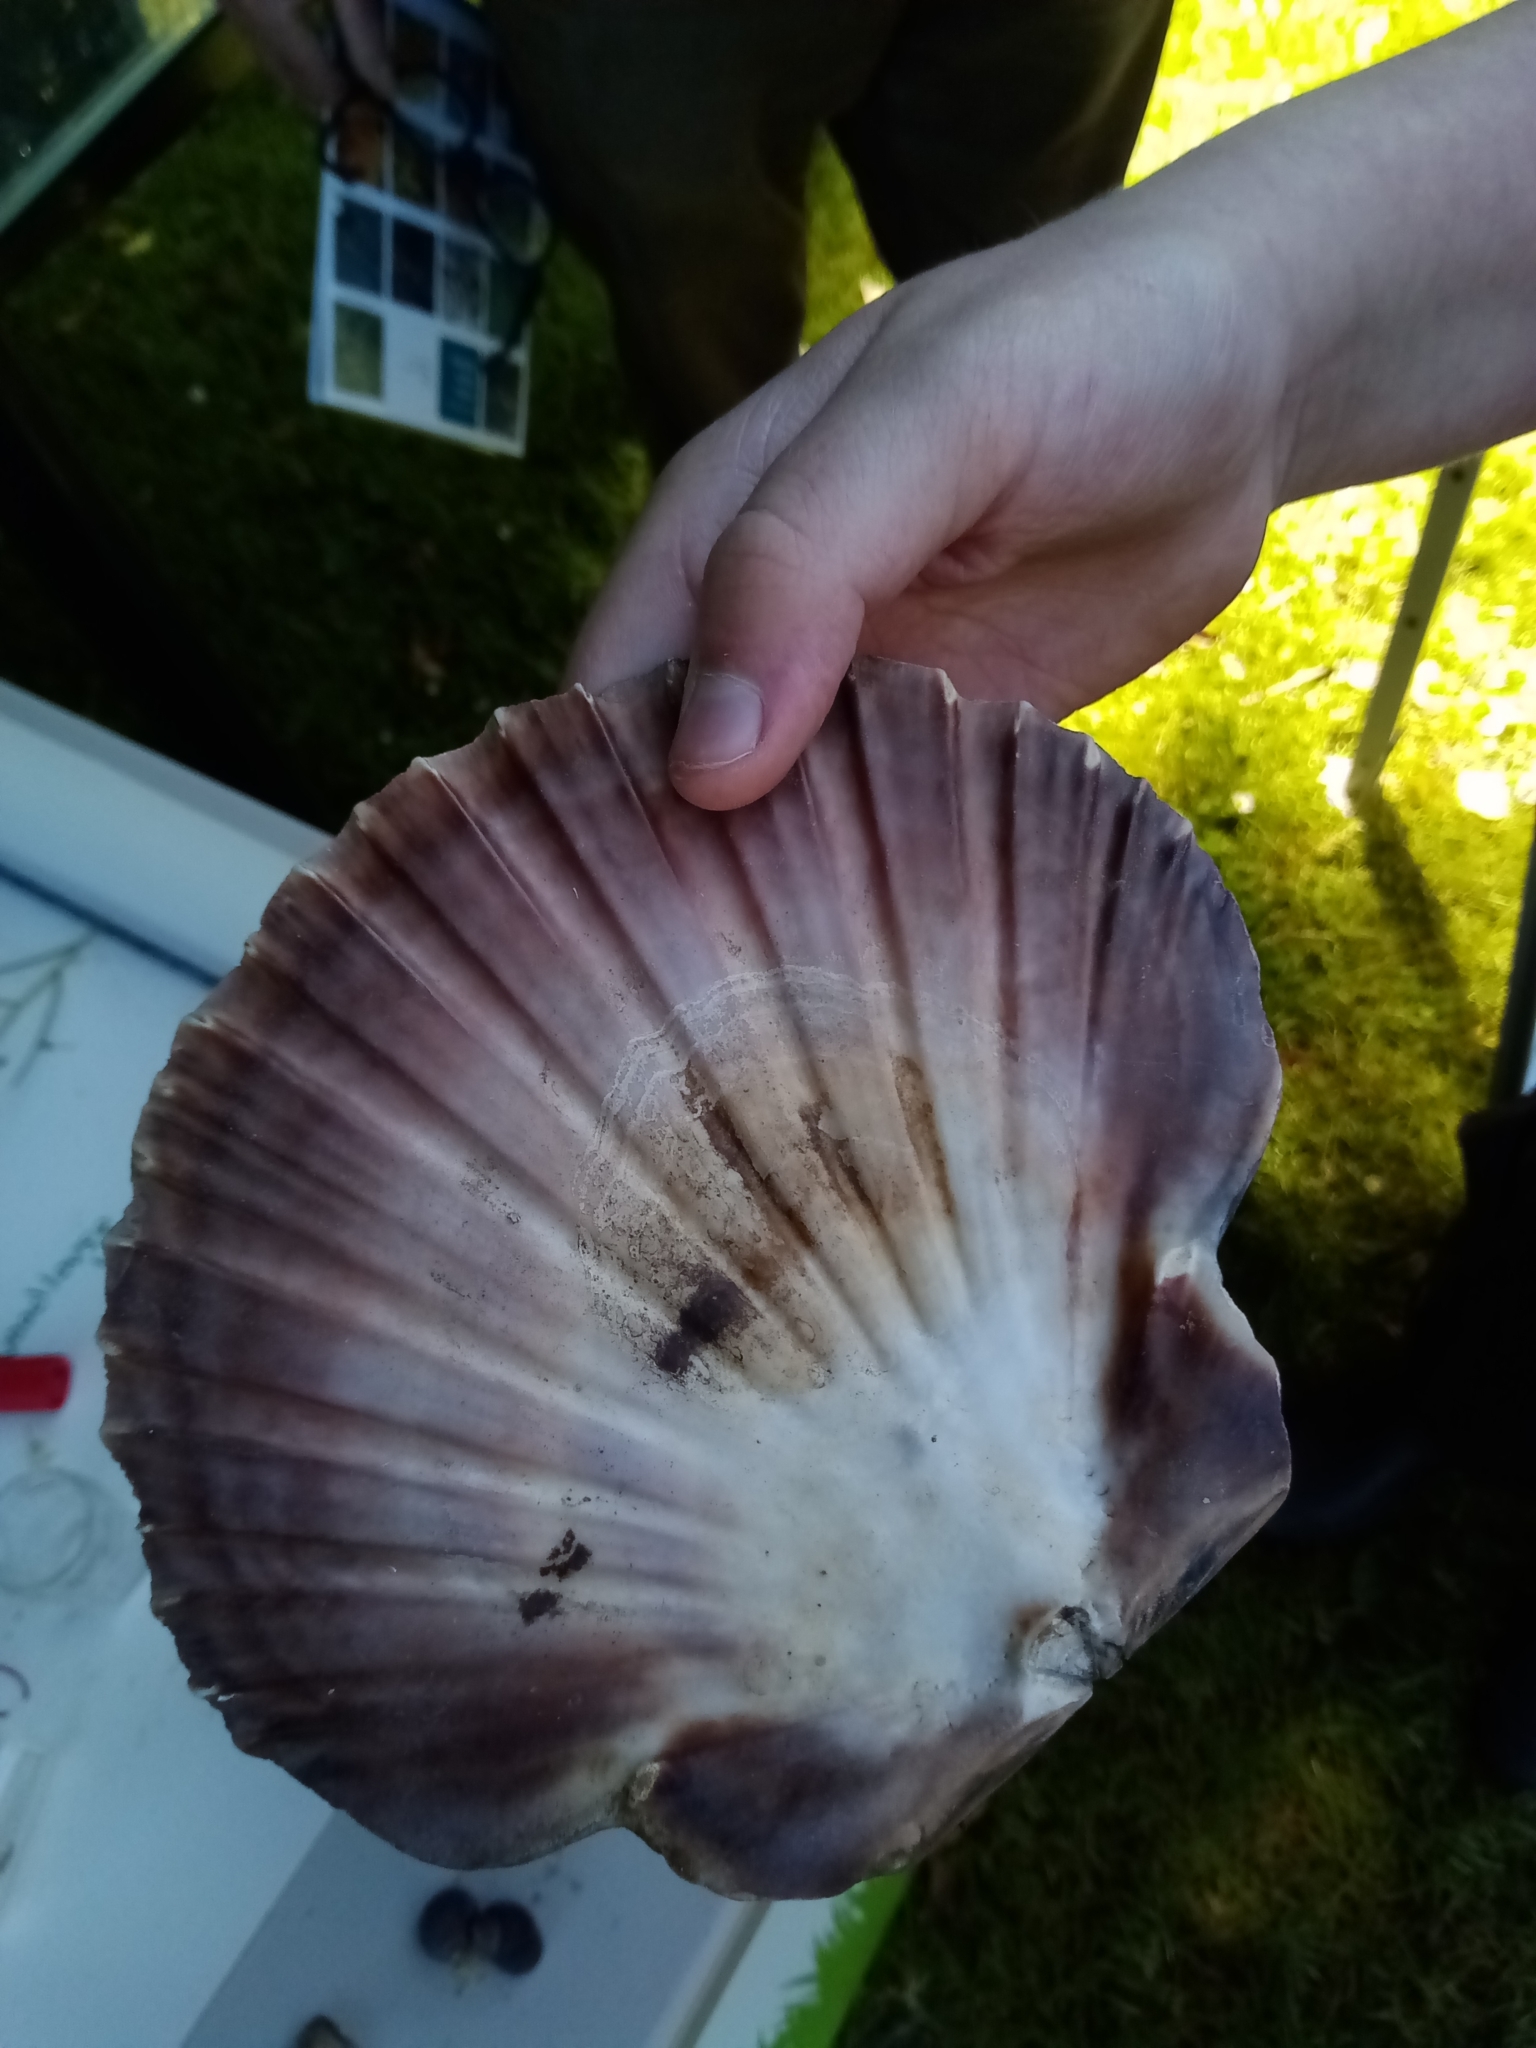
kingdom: Animalia
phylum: Mollusca
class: Bivalvia
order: Pectinida
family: Pectinidae
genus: Pecten
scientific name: Pecten maximus
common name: Great scallop
